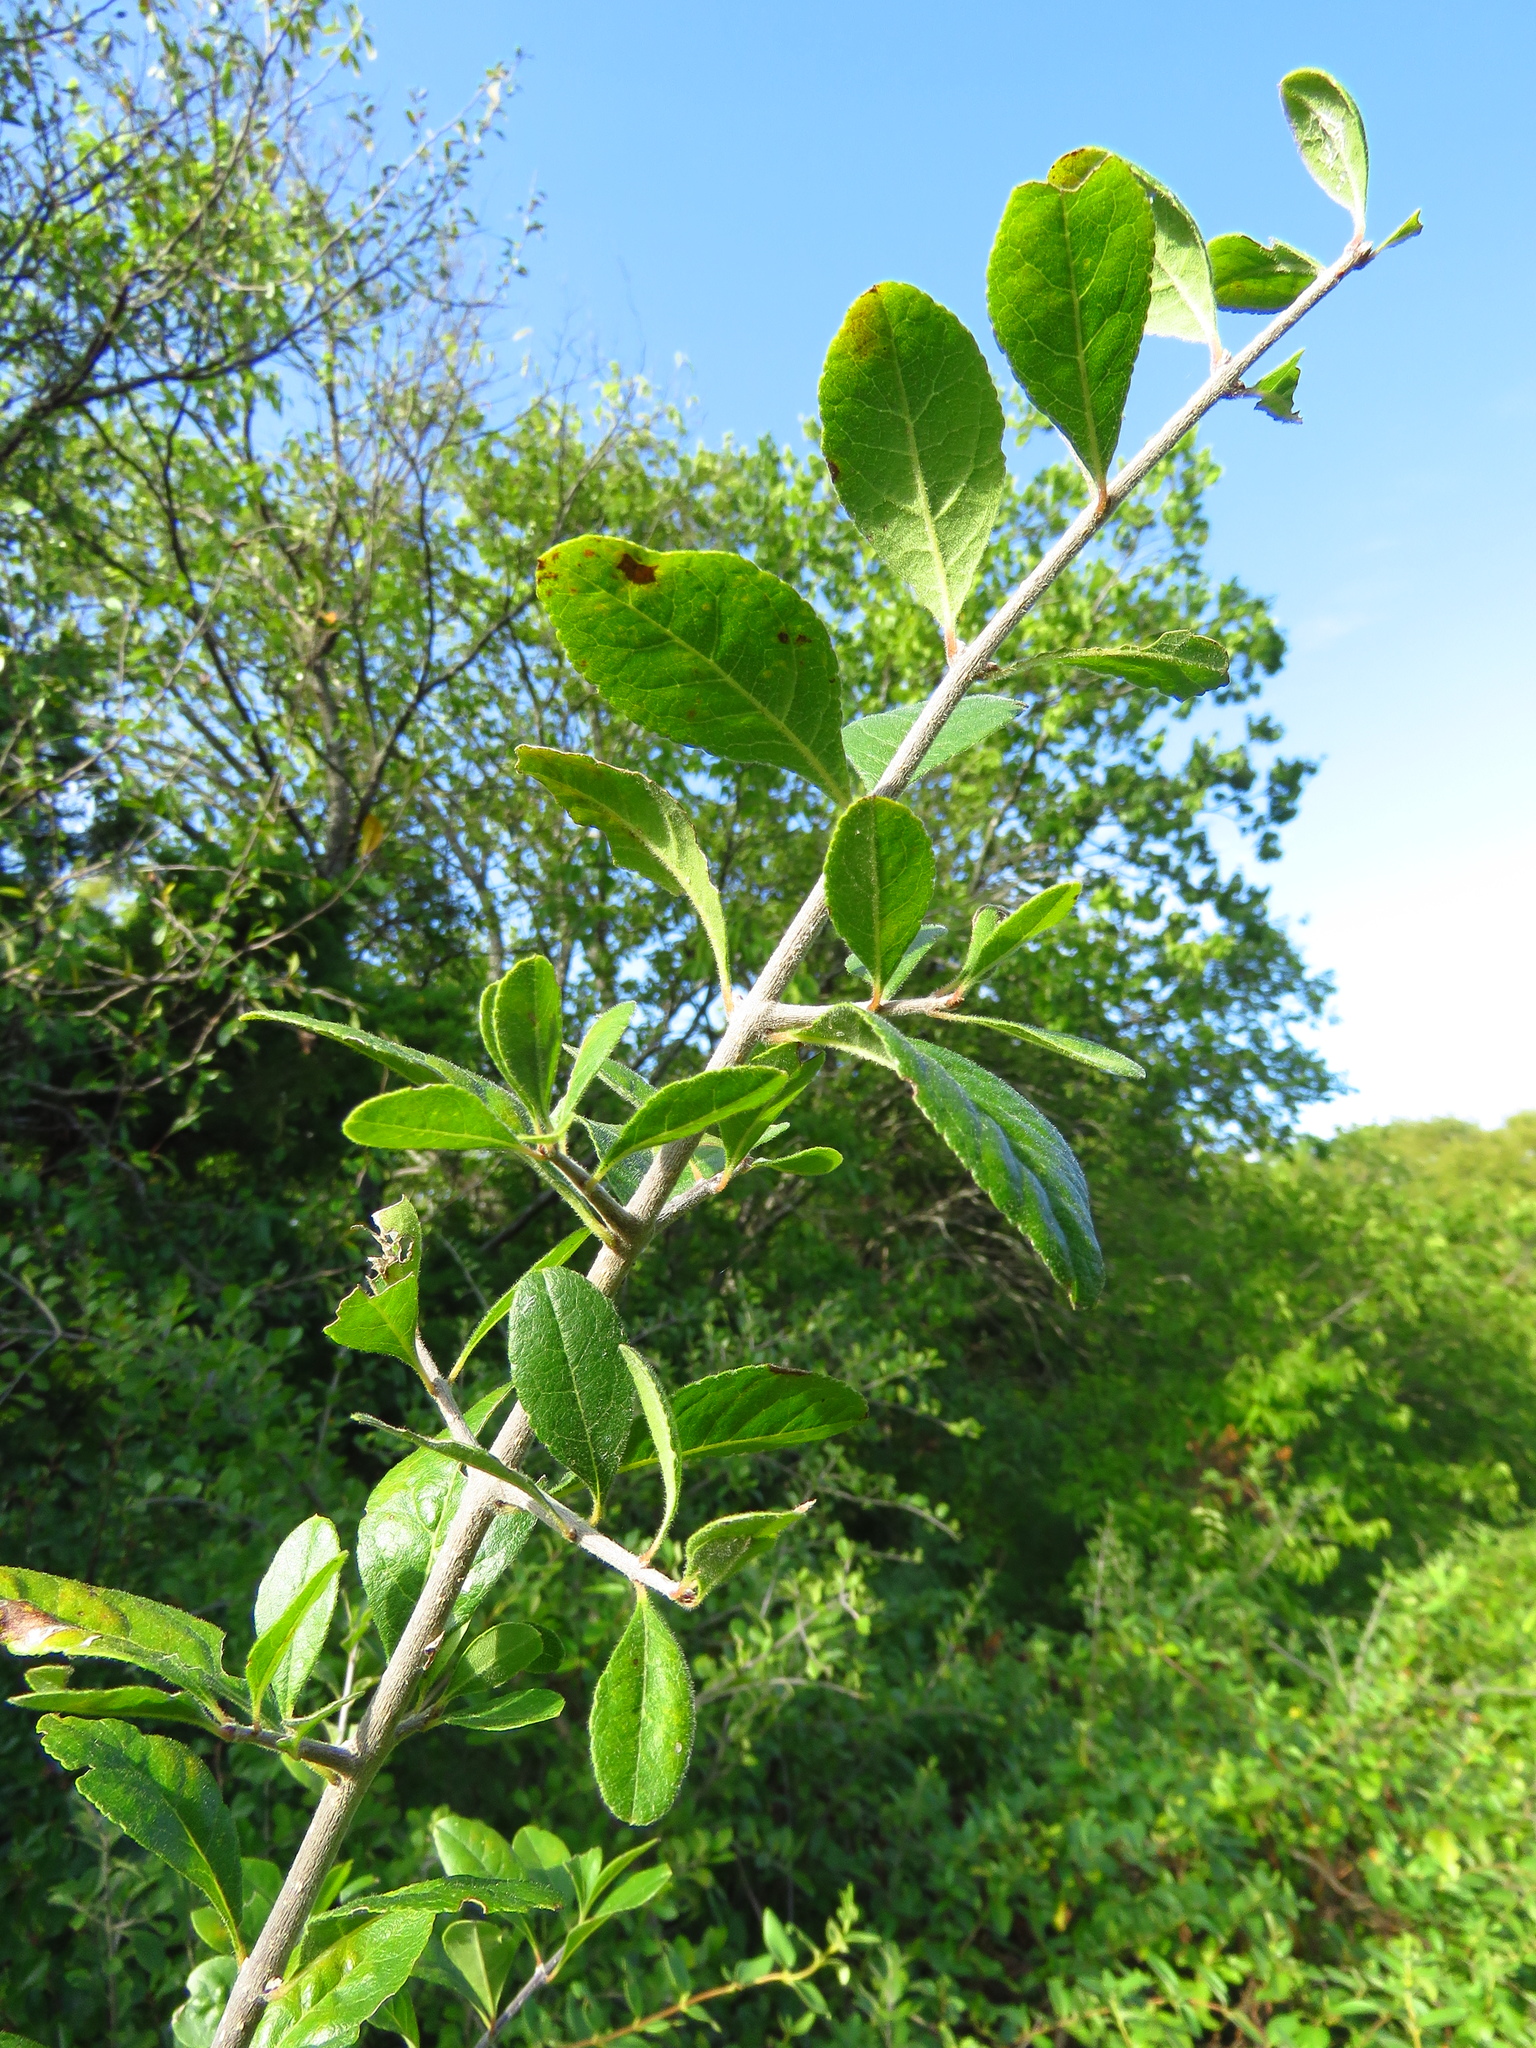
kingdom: Plantae
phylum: Tracheophyta
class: Magnoliopsida
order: Lamiales
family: Oleaceae
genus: Forestiera
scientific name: Forestiera pubescens
